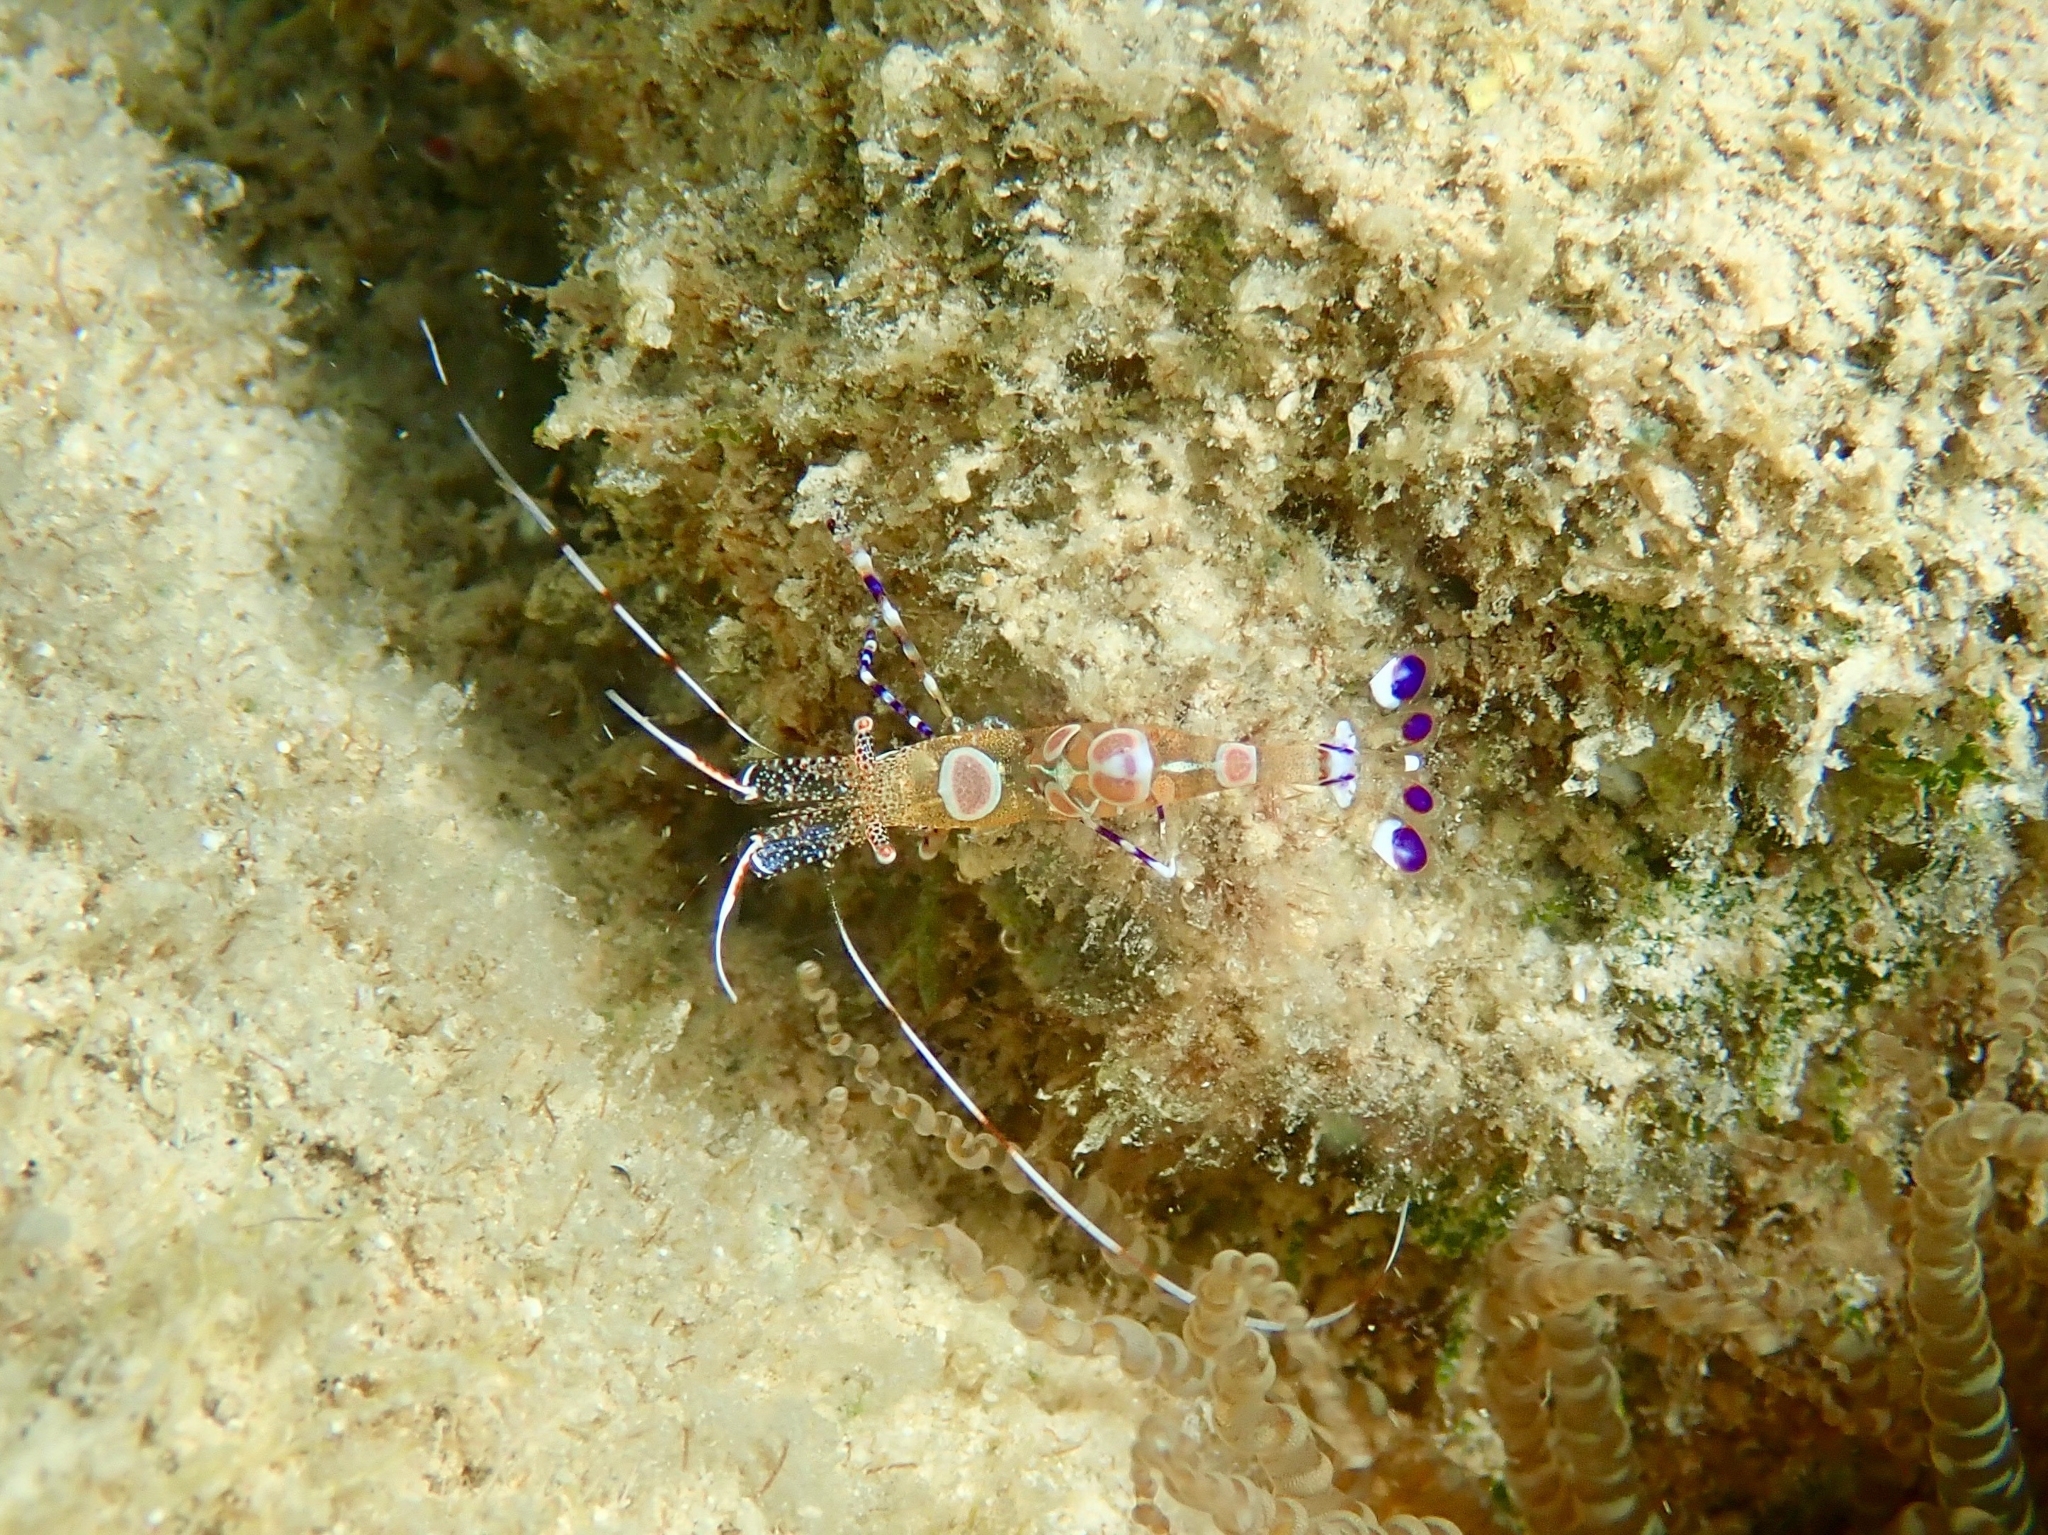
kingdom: Animalia
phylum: Arthropoda
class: Malacostraca
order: Decapoda
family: Palaemonidae
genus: Periclimenes
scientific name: Periclimenes yucatanicus
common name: Spotted cleaning shrimp
